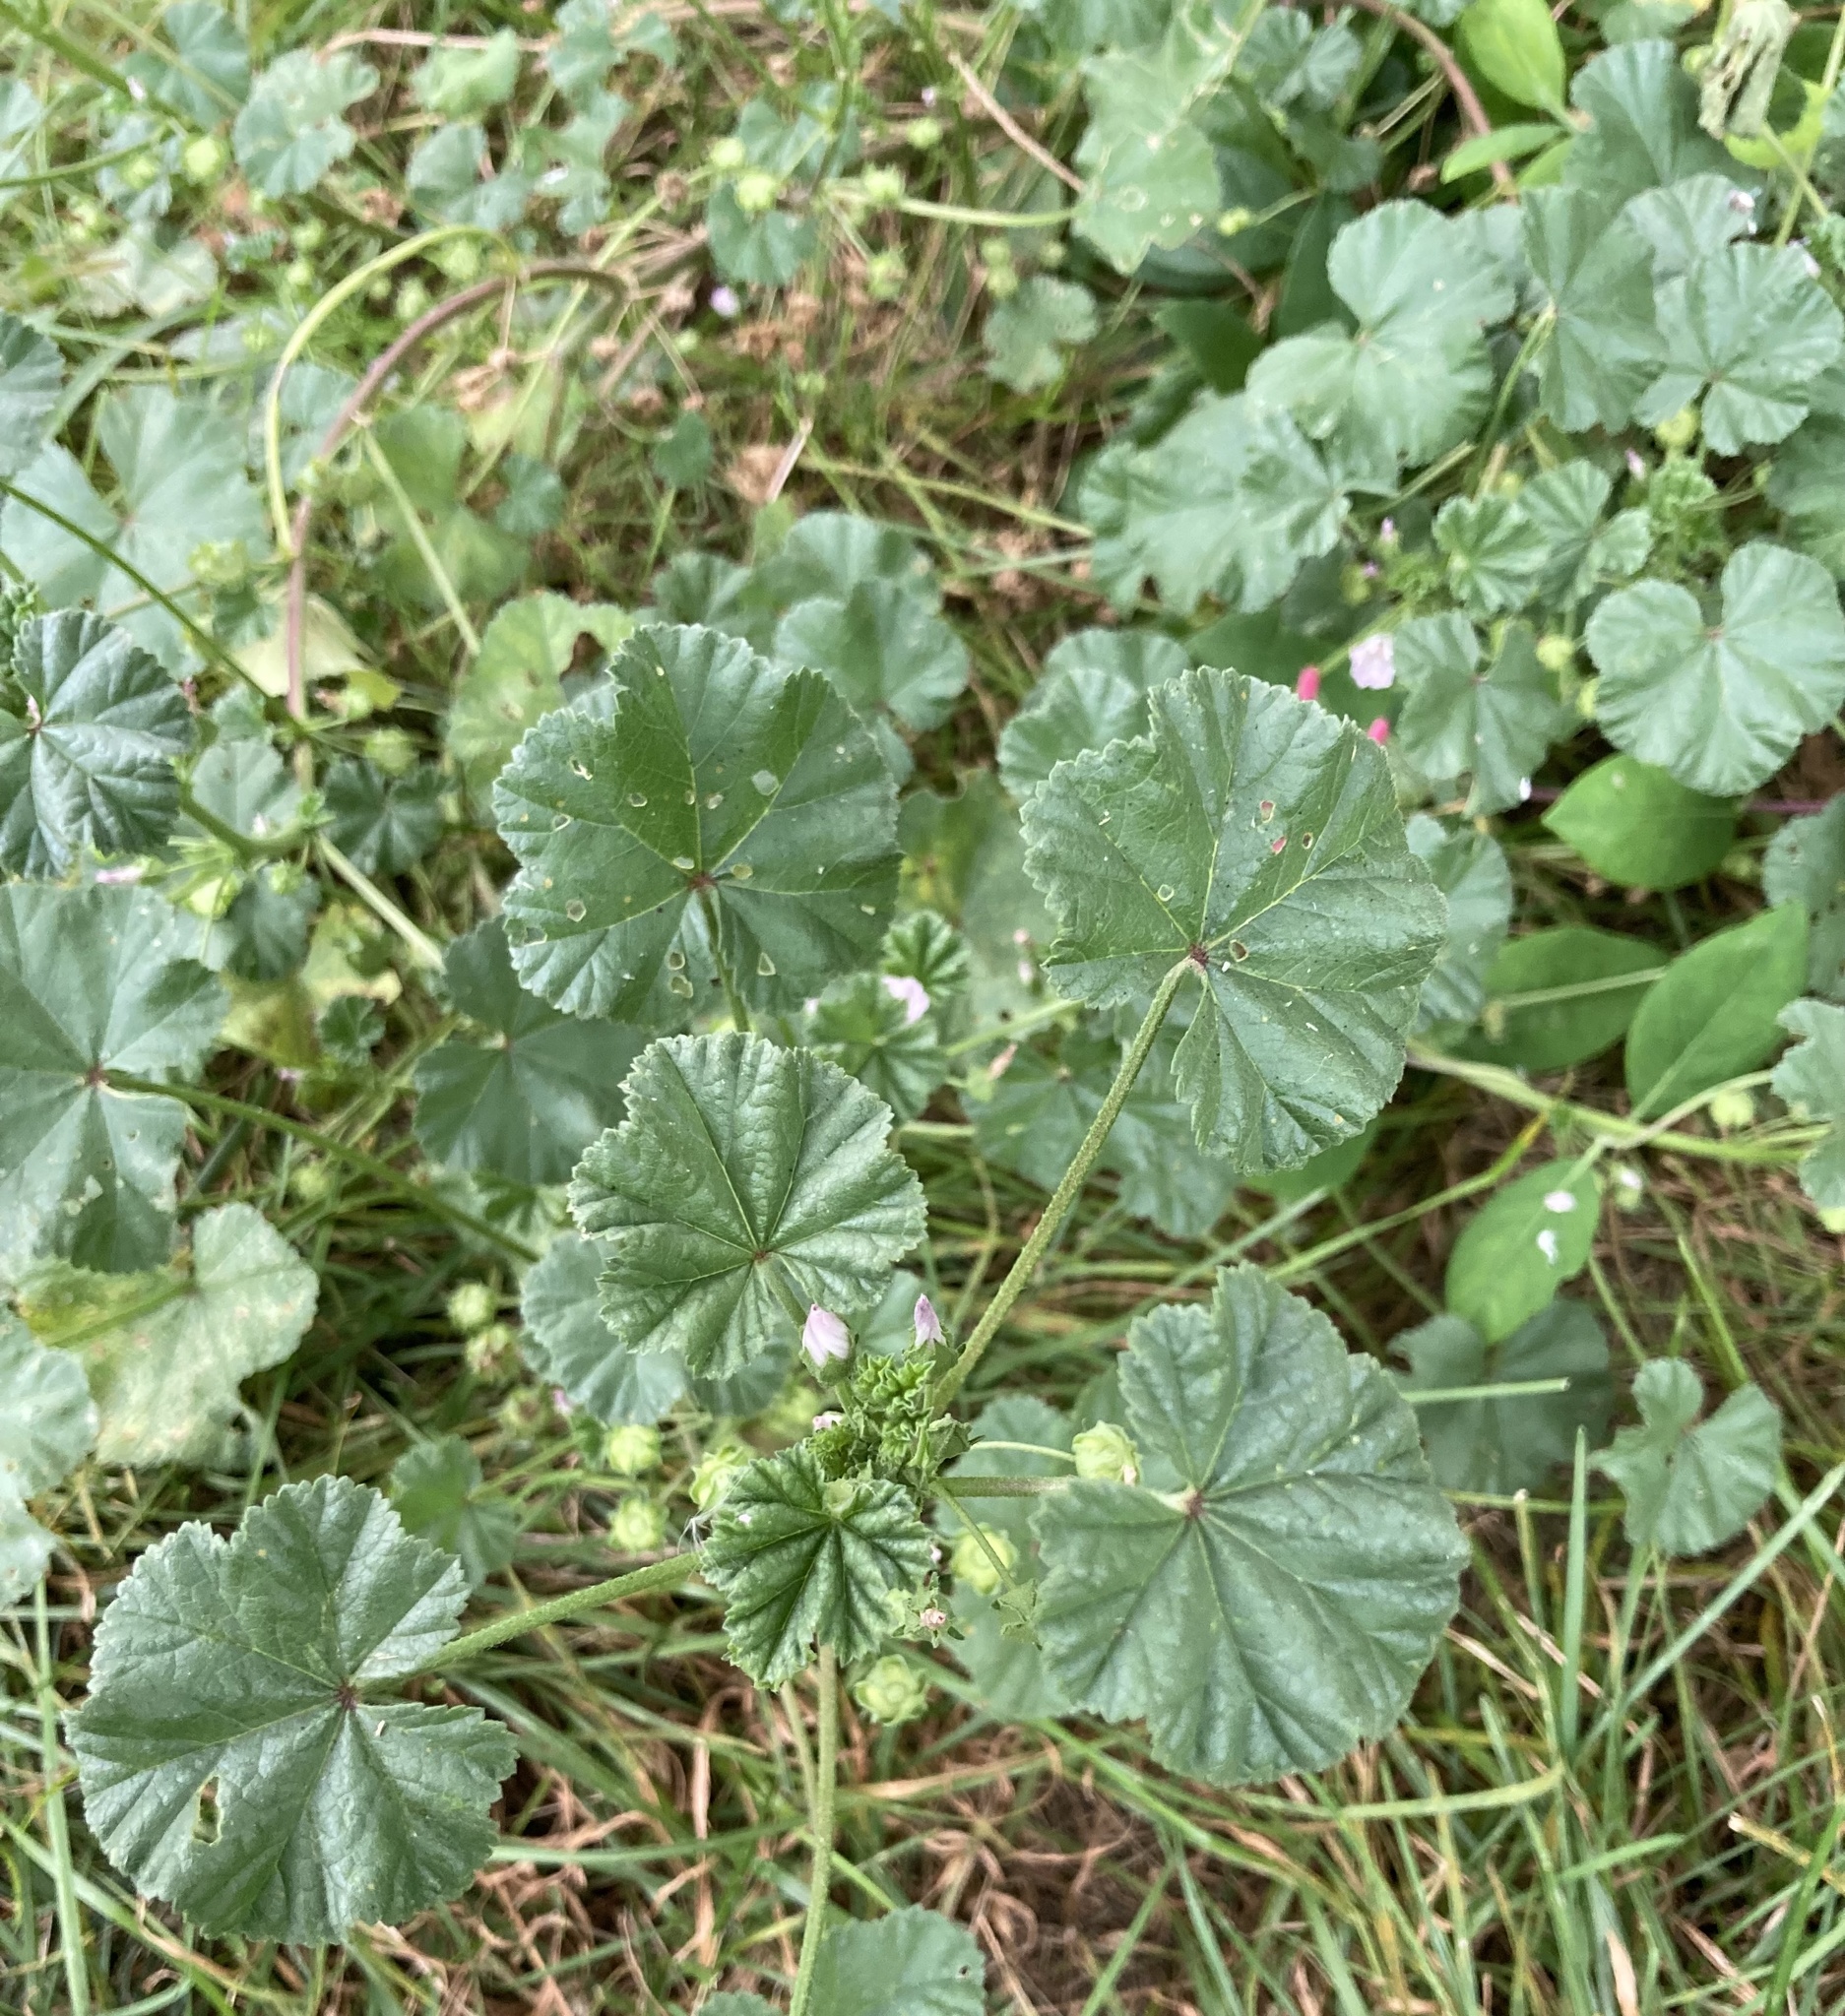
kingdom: Plantae
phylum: Tracheophyta
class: Magnoliopsida
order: Malvales
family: Malvaceae
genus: Malva
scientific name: Malva neglecta
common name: Common mallow
